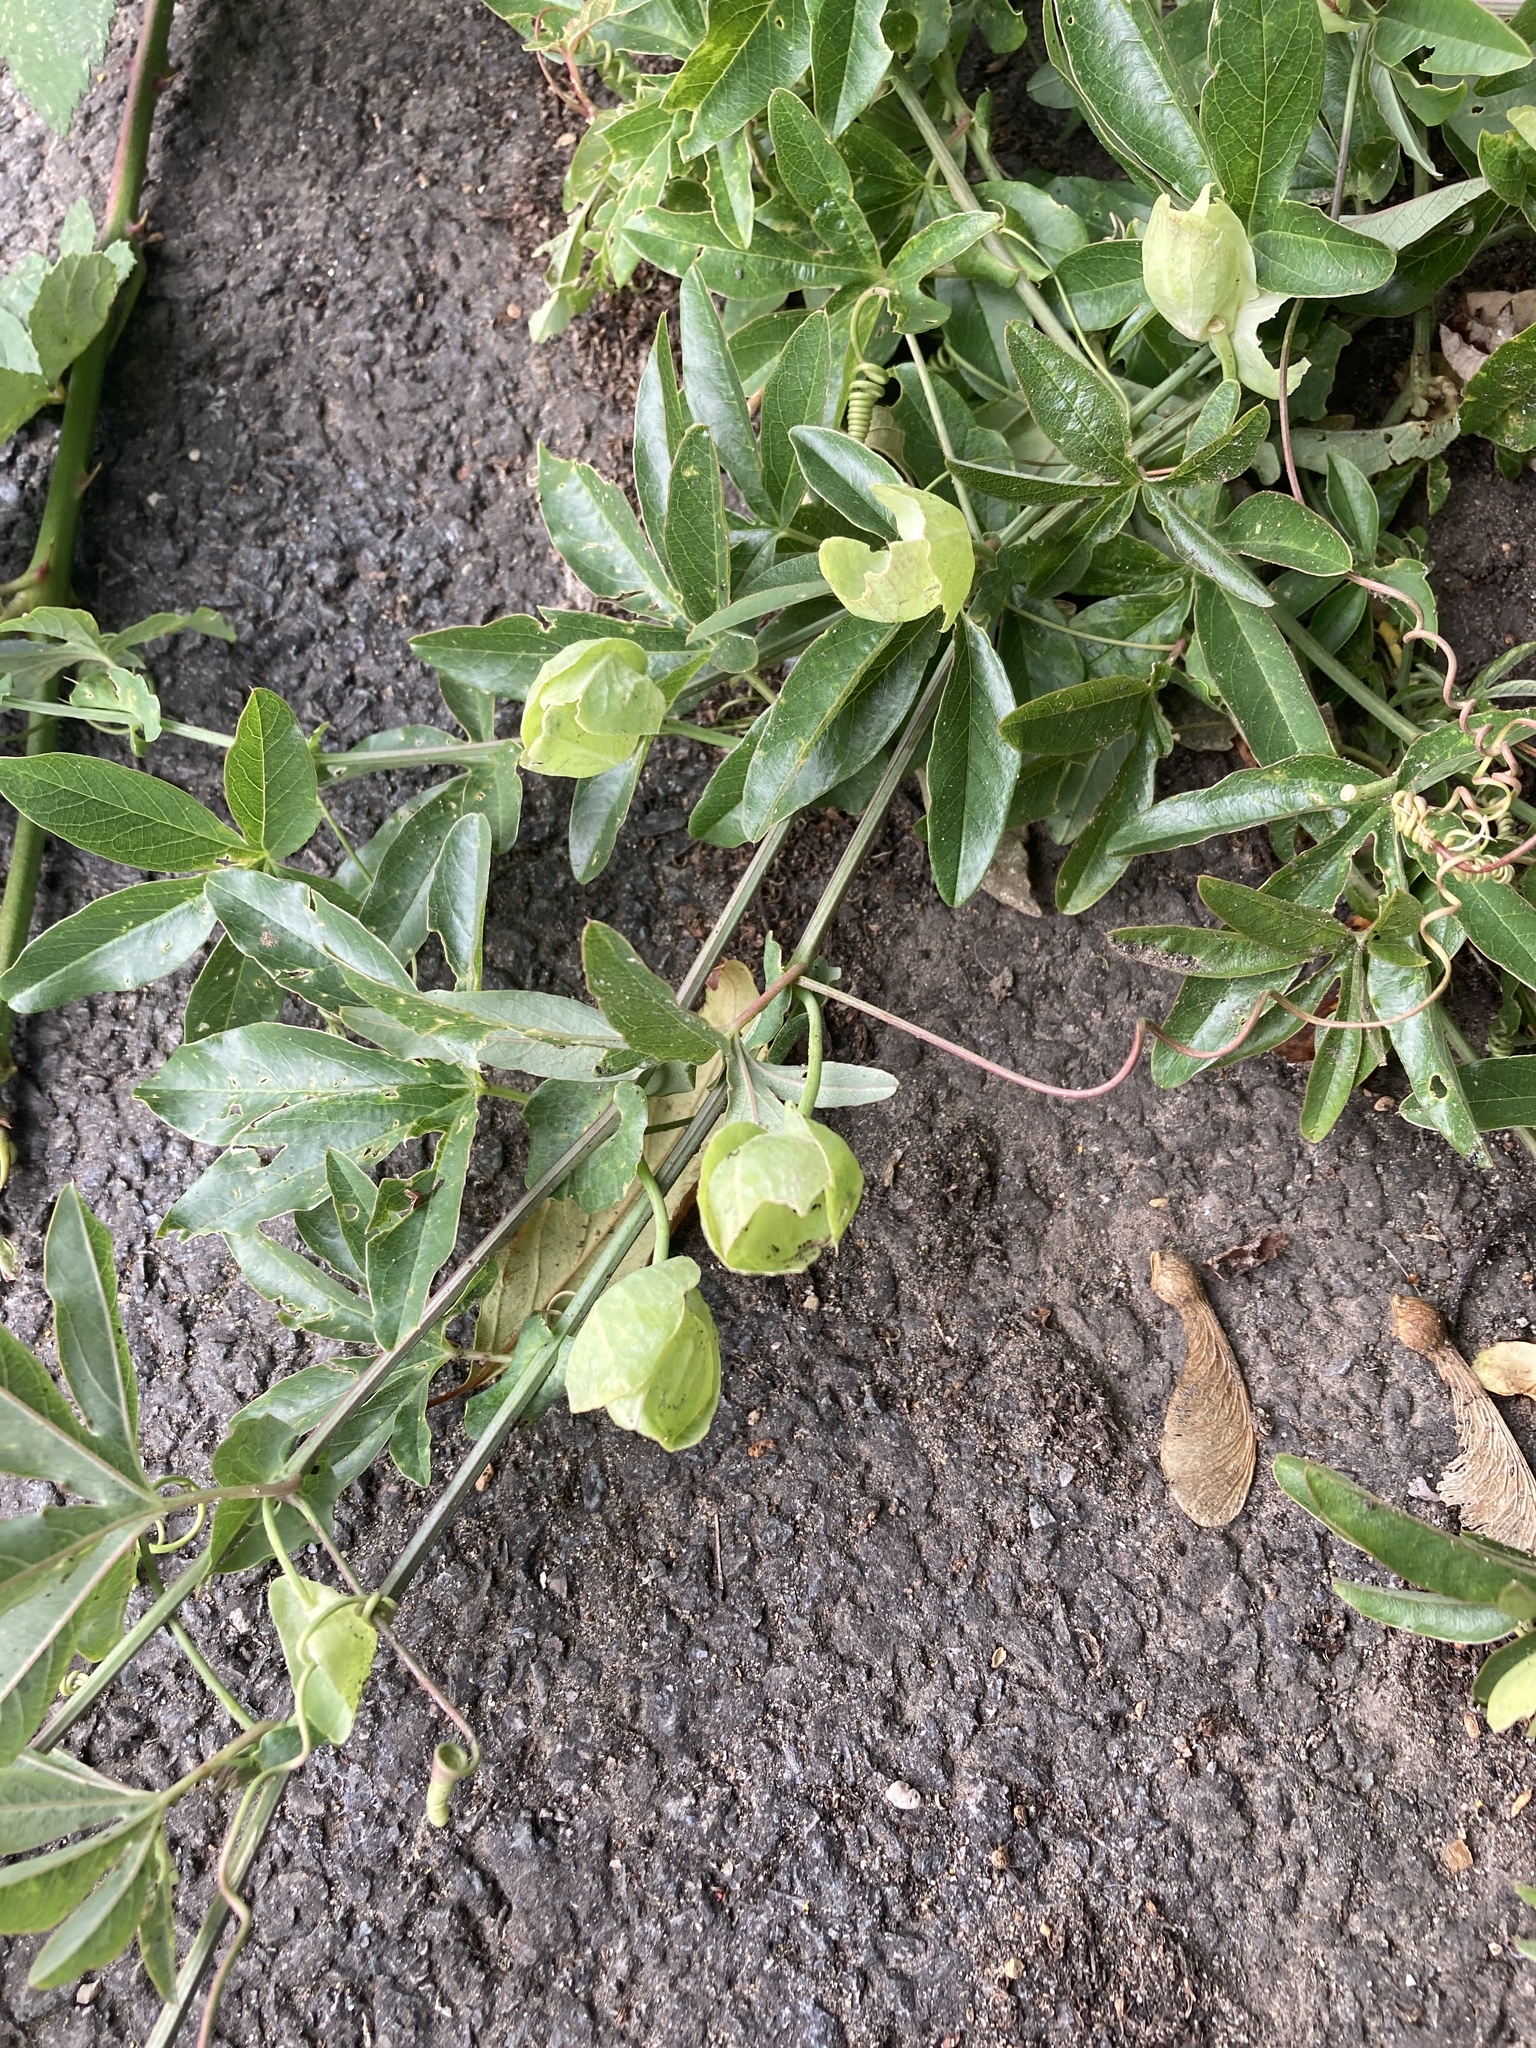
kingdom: Plantae
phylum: Tracheophyta
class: Magnoliopsida
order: Malpighiales
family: Passifloraceae
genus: Passiflora
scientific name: Passiflora caerulea
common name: Blue passionflower
